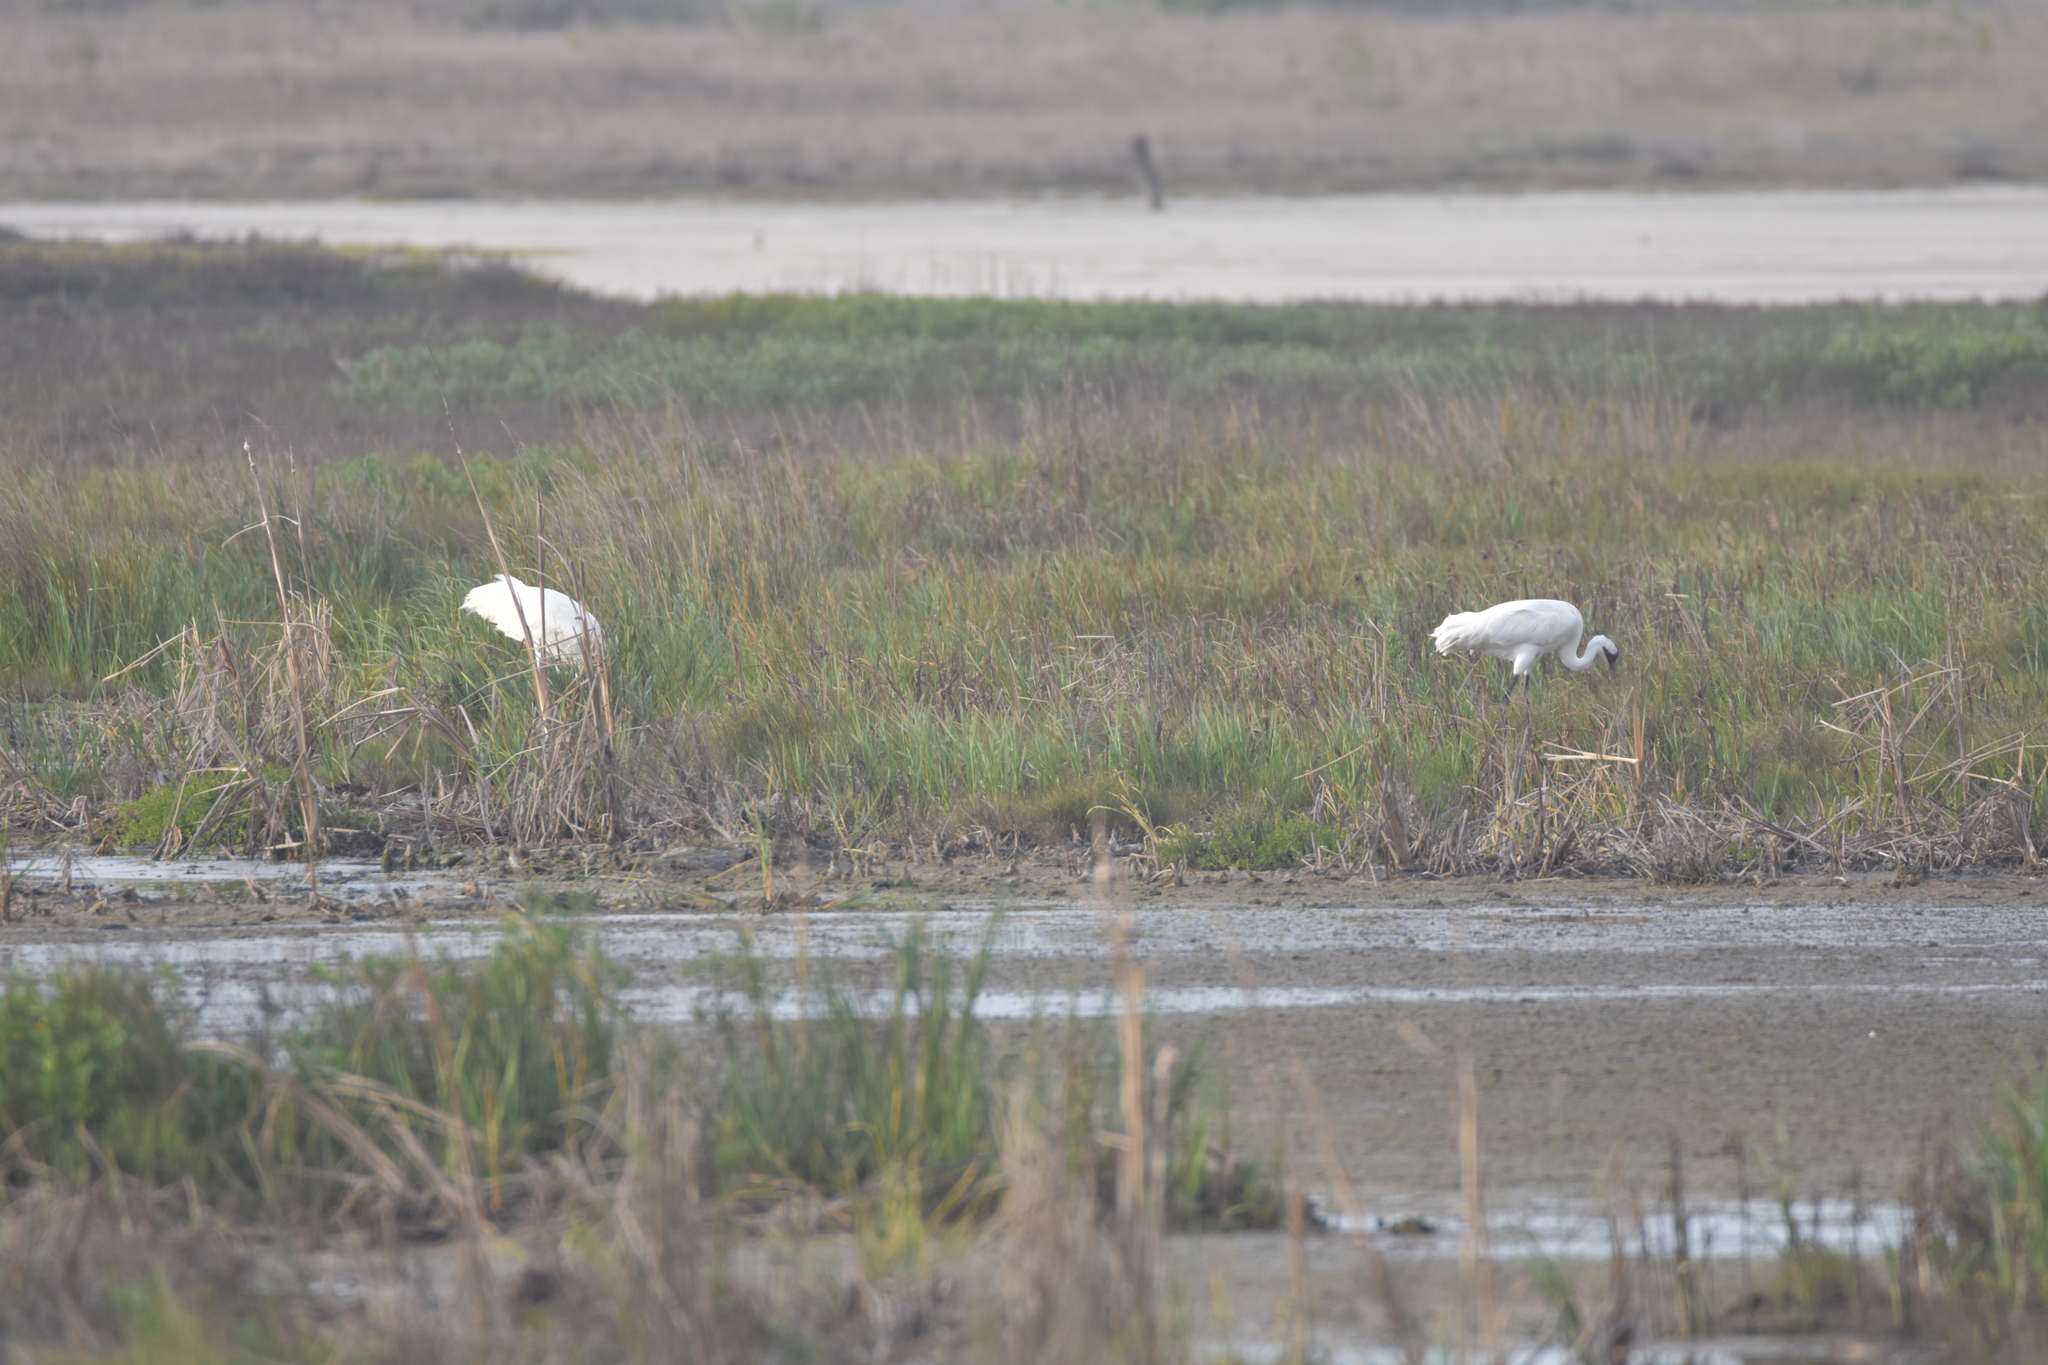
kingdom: Animalia
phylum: Chordata
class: Aves
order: Gruiformes
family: Gruidae
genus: Grus
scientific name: Grus americana
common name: Whooping crane
